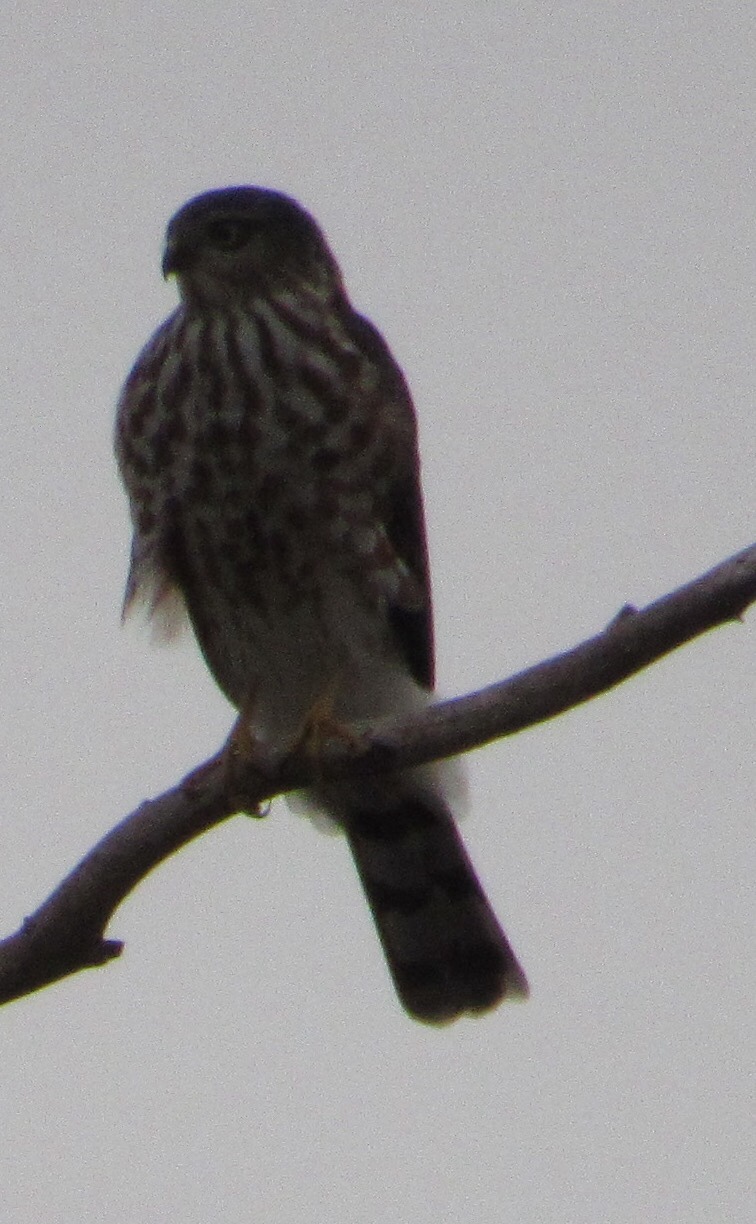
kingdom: Animalia
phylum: Chordata
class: Aves
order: Accipitriformes
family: Accipitridae
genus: Accipiter
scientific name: Accipiter striatus
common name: Sharp-shinned hawk
